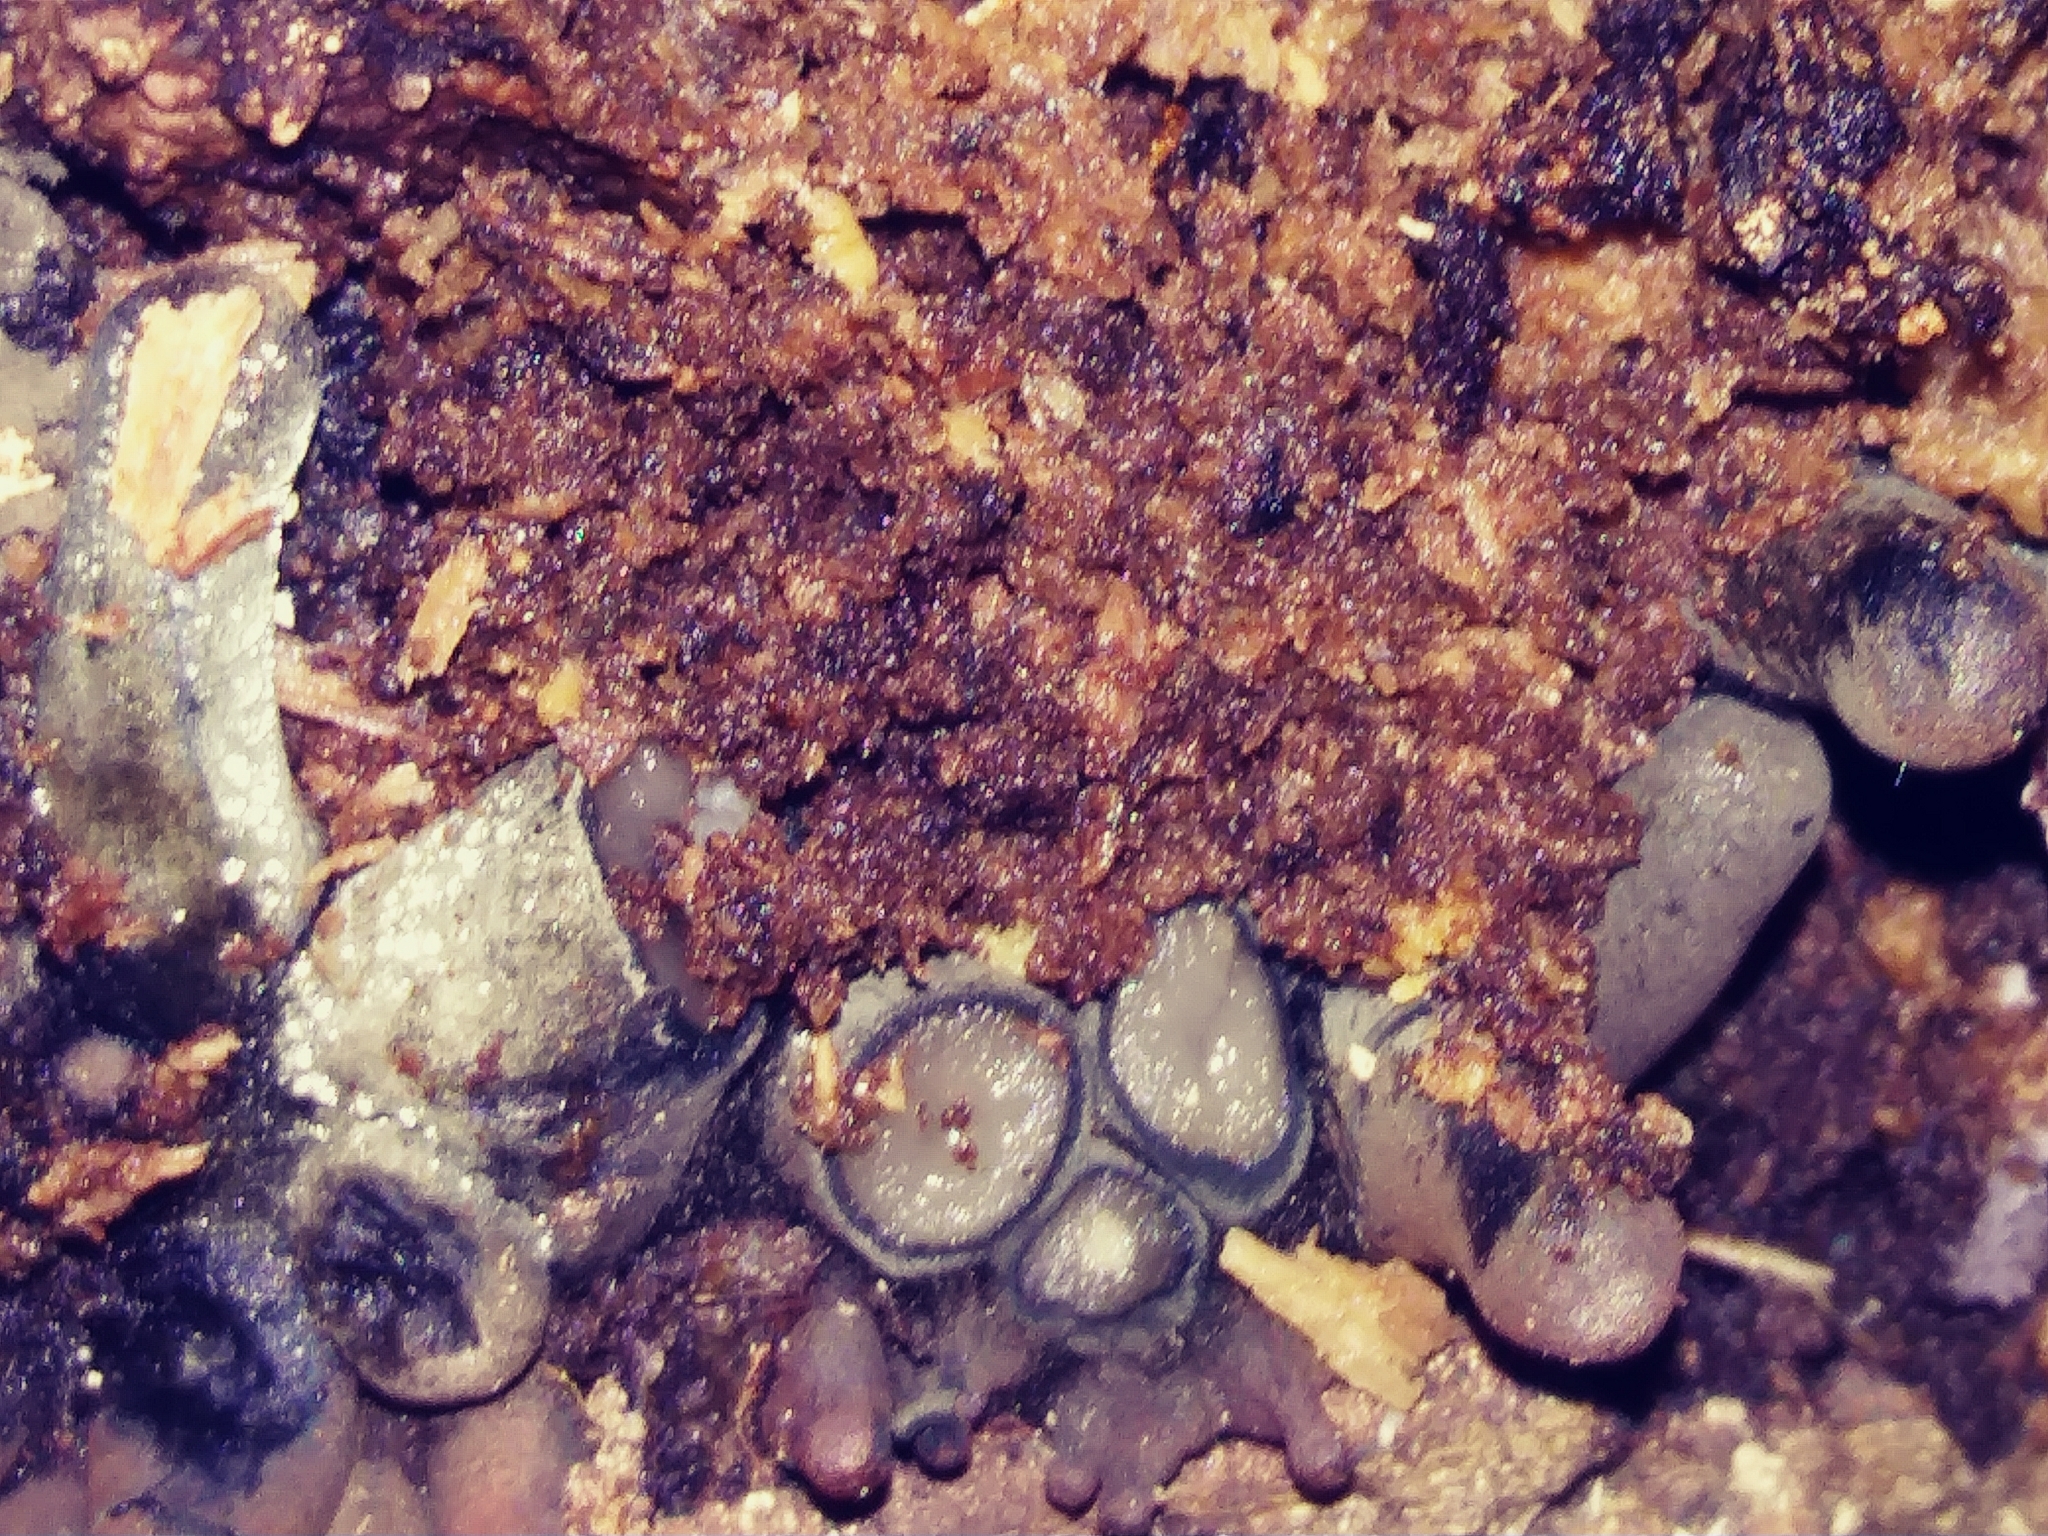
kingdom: Fungi
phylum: Ascomycota
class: Sordariomycetes
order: Xylariales
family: Xylariaceae
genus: Xylaria
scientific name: Xylaria polymorpha
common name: Dead man's fingers
